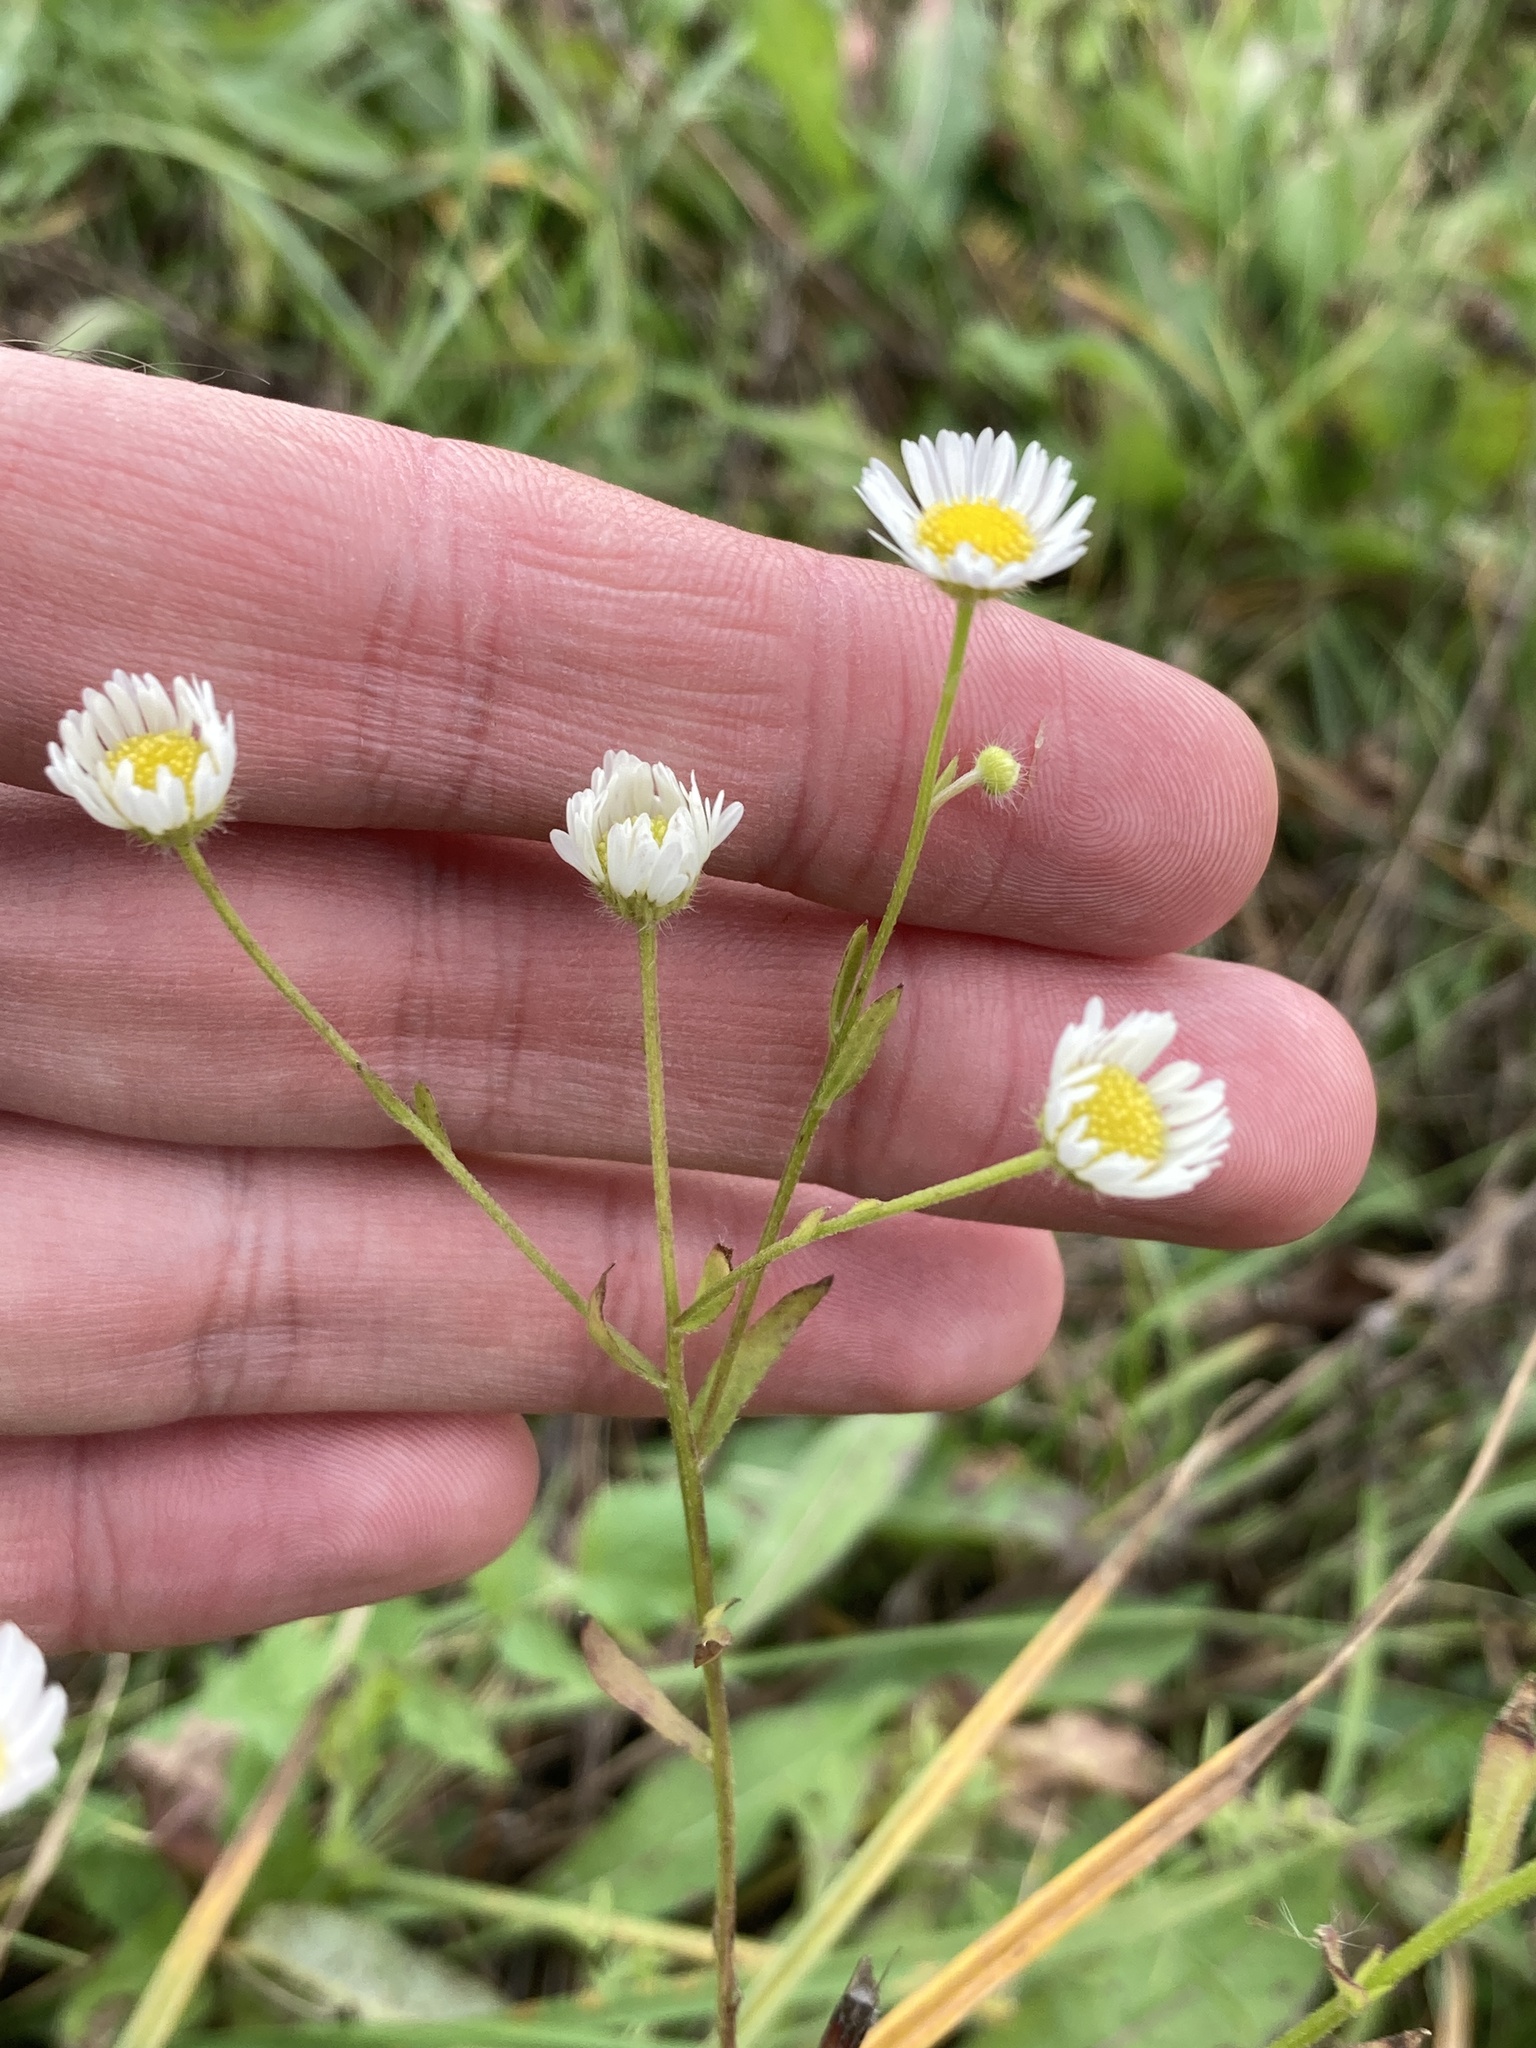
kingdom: Plantae
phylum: Tracheophyta
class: Magnoliopsida
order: Asterales
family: Asteraceae
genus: Erigeron
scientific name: Erigeron strigosus
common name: Common eastern fleabane
